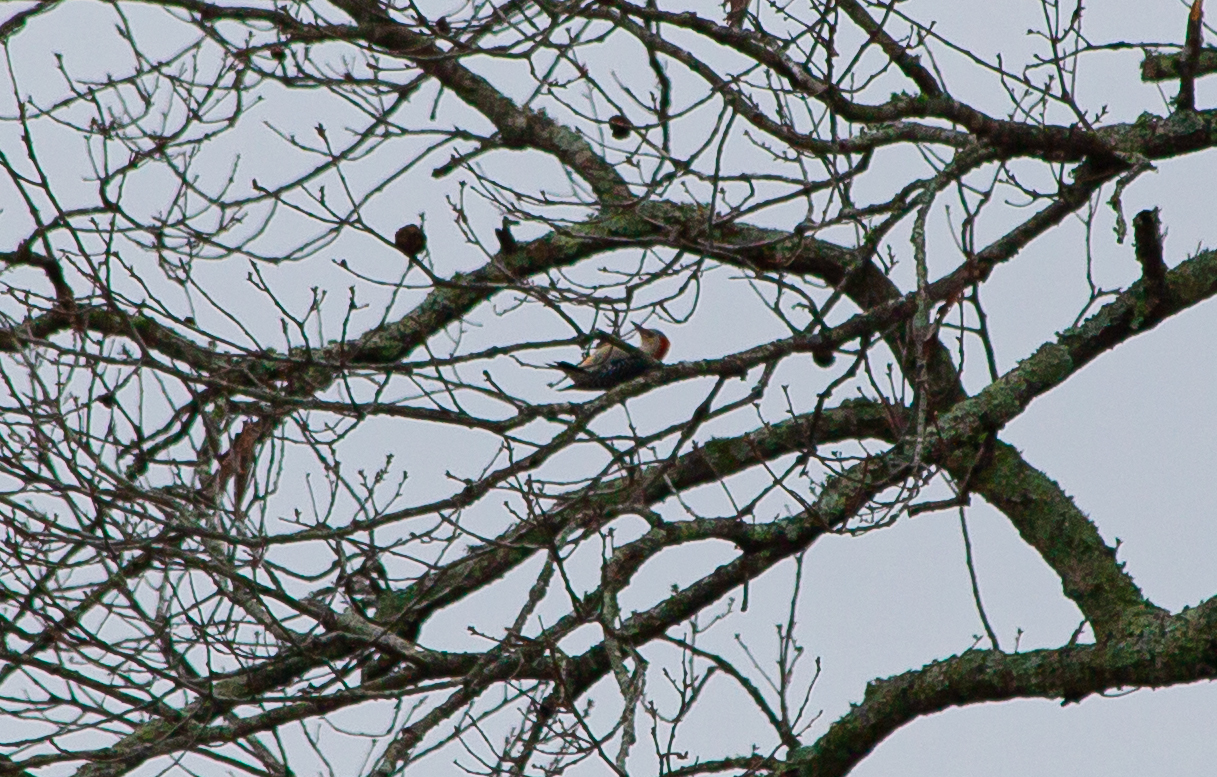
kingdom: Animalia
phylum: Chordata
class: Aves
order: Piciformes
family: Picidae
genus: Melanerpes
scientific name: Melanerpes carolinus
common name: Red-bellied woodpecker
